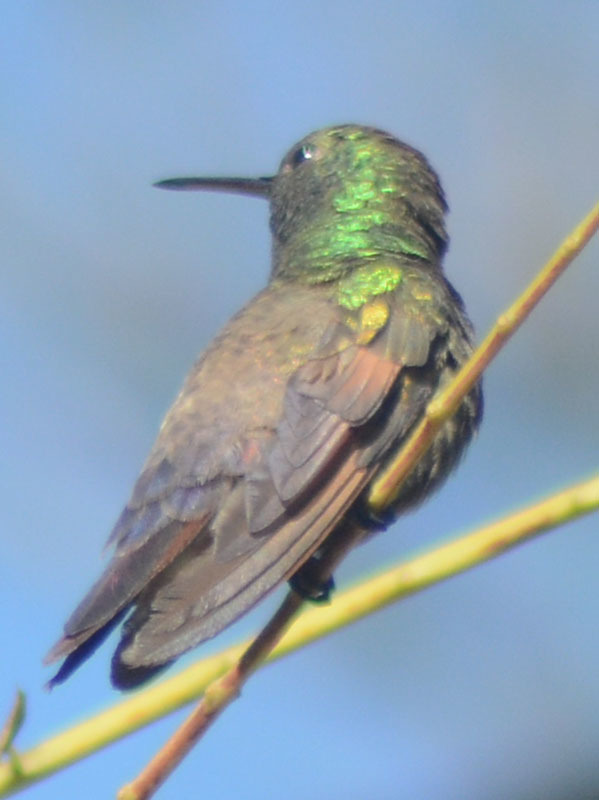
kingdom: Animalia
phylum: Chordata
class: Aves
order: Apodiformes
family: Trochilidae
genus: Saucerottia
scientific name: Saucerottia beryllina
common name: Berylline hummingbird
